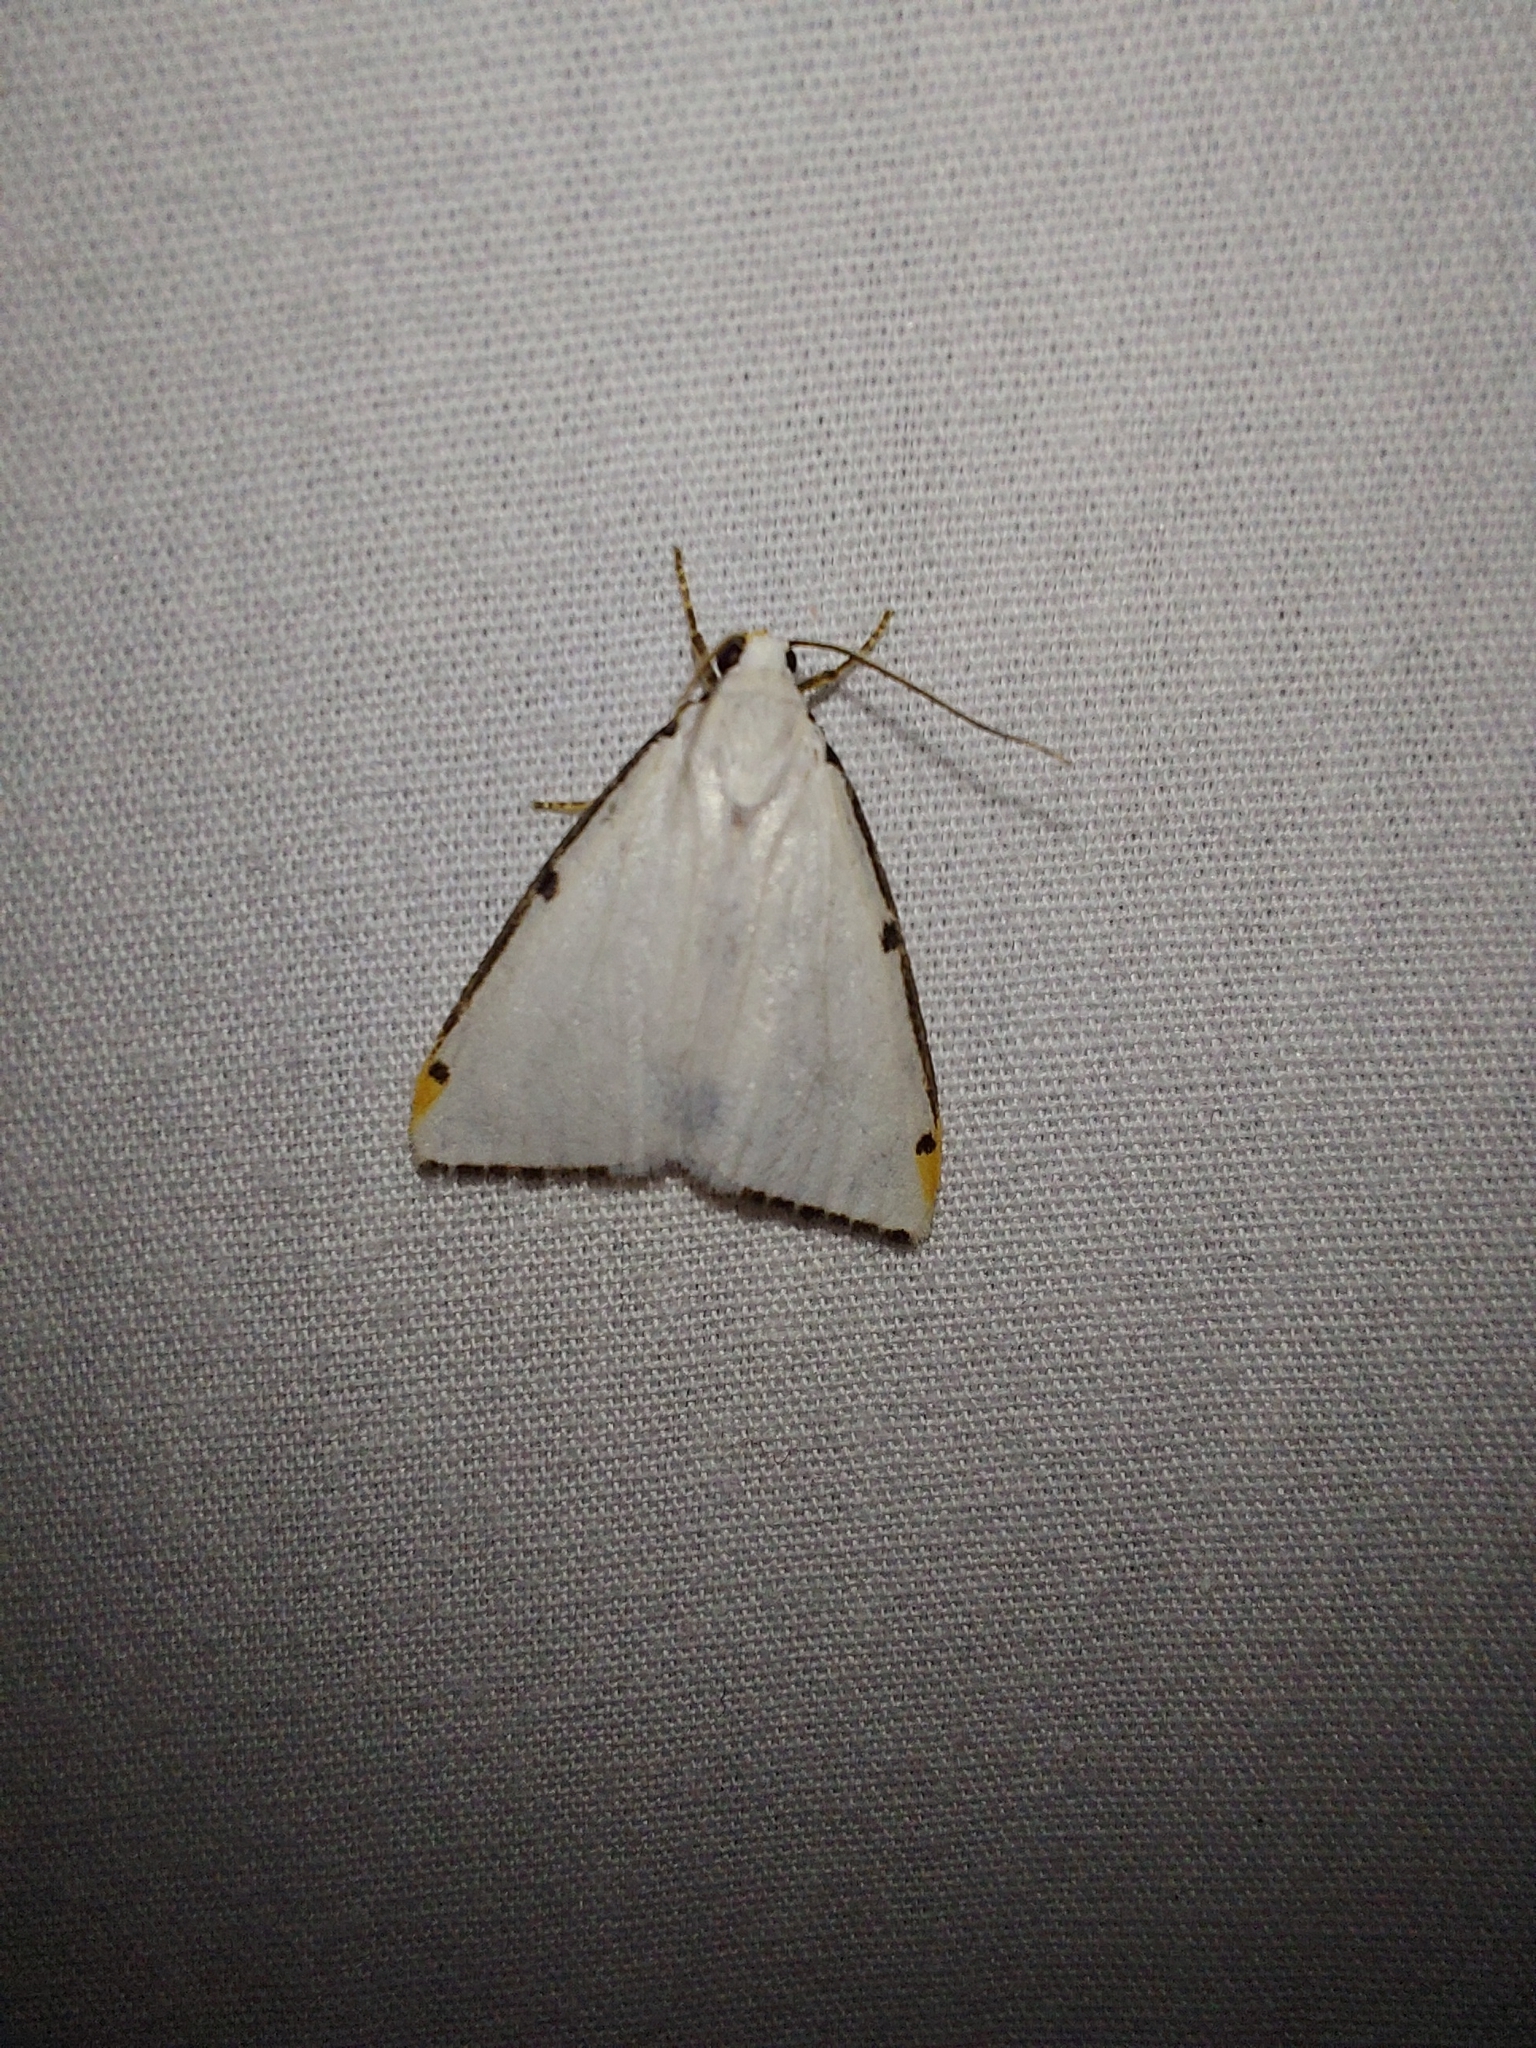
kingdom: Animalia
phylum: Arthropoda
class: Insecta
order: Lepidoptera
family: Erebidae
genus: Termessa
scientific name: Termessa nivosa
